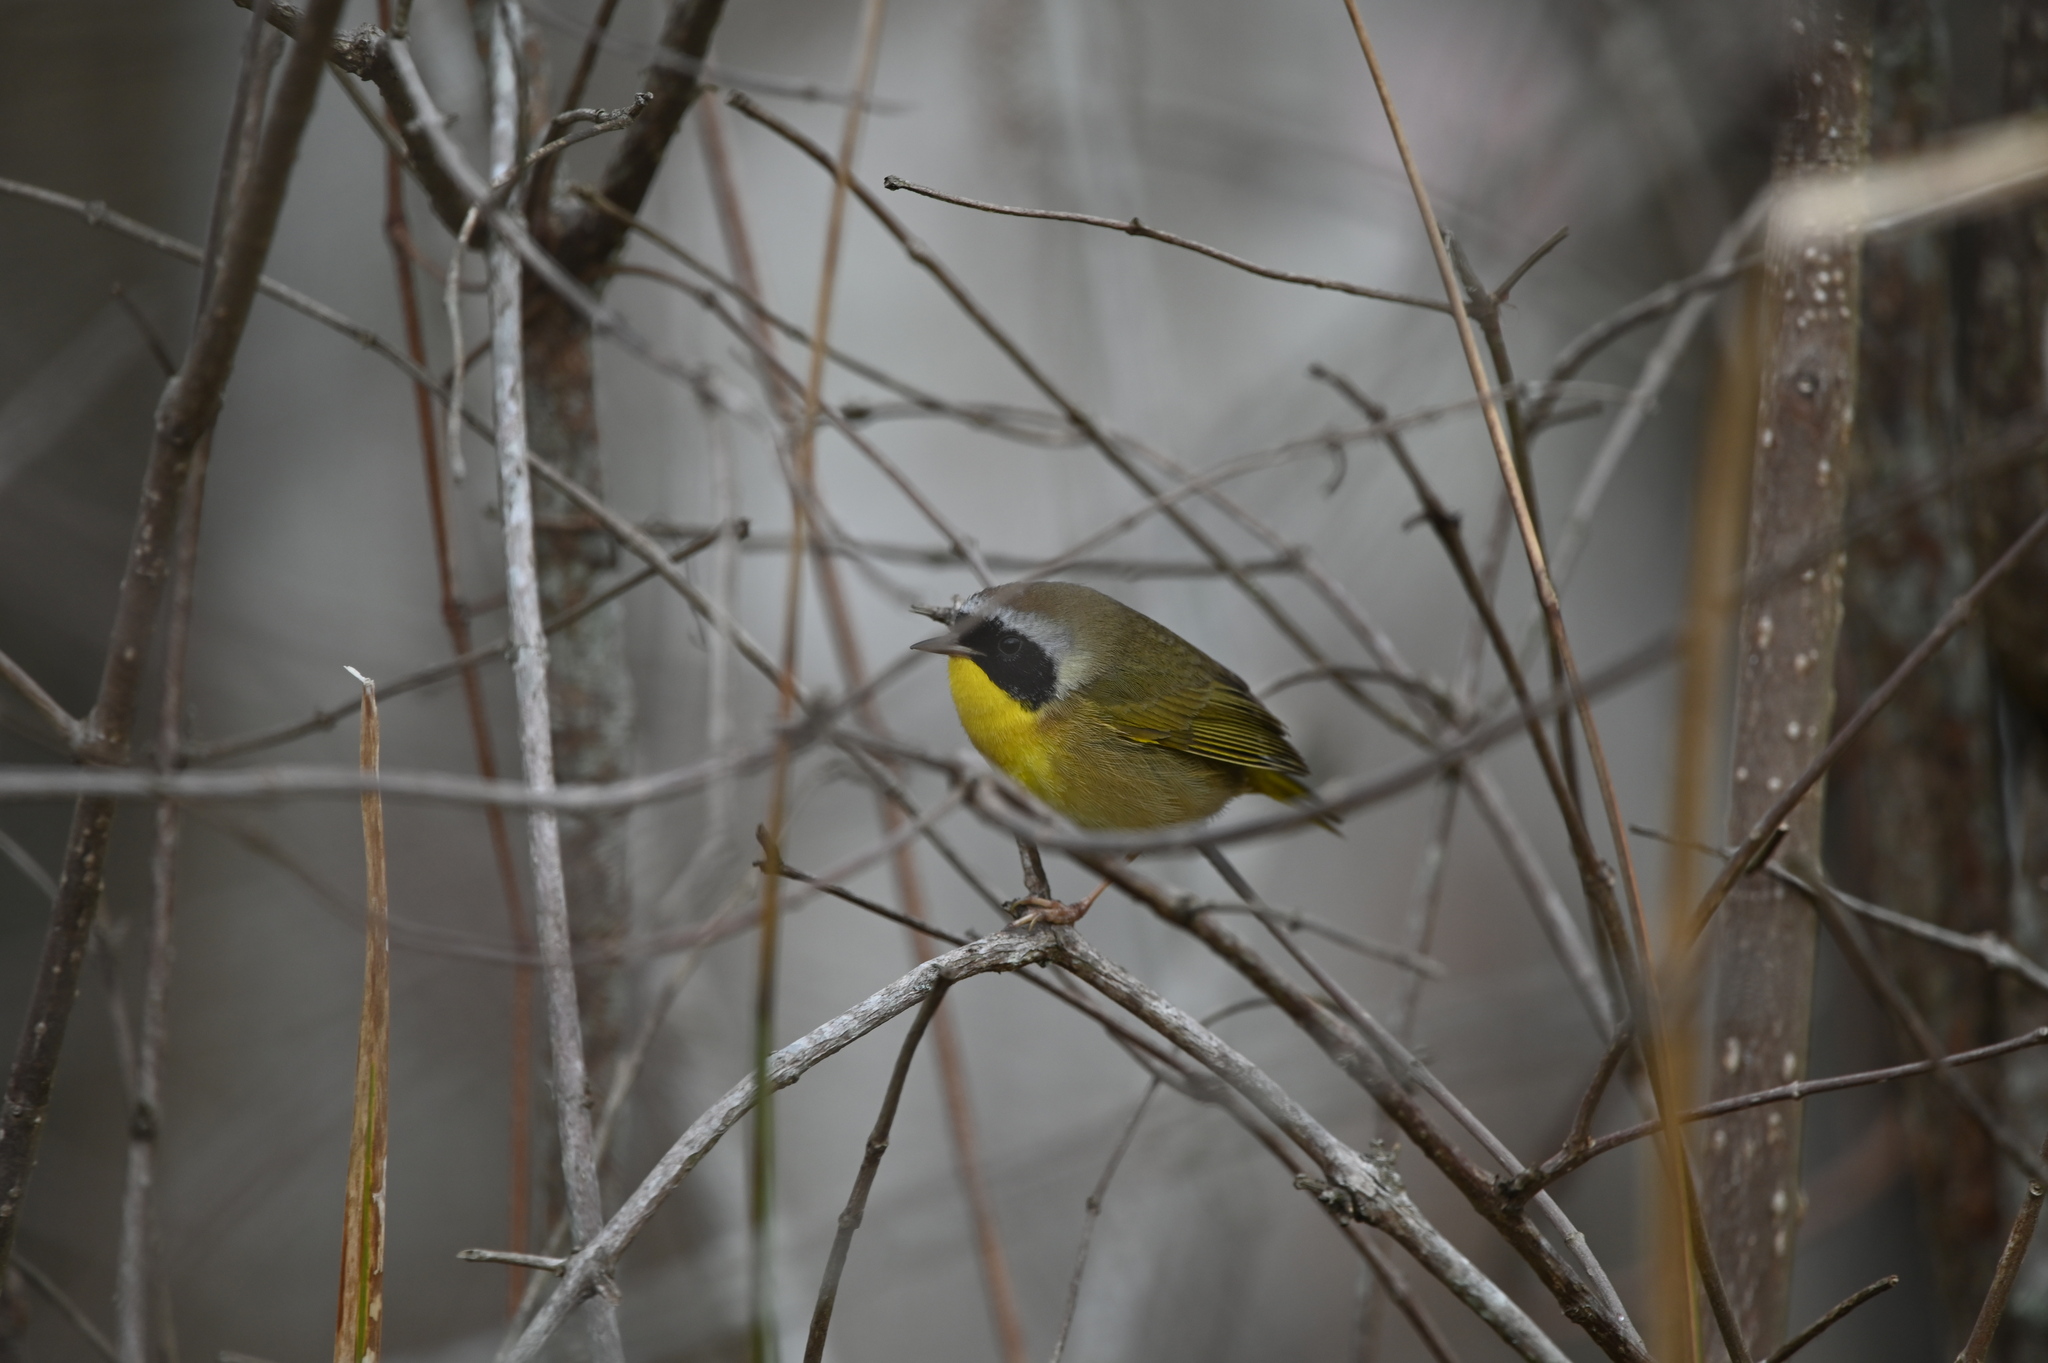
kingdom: Animalia
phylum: Chordata
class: Aves
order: Passeriformes
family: Parulidae
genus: Geothlypis
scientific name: Geothlypis trichas
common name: Common yellowthroat
